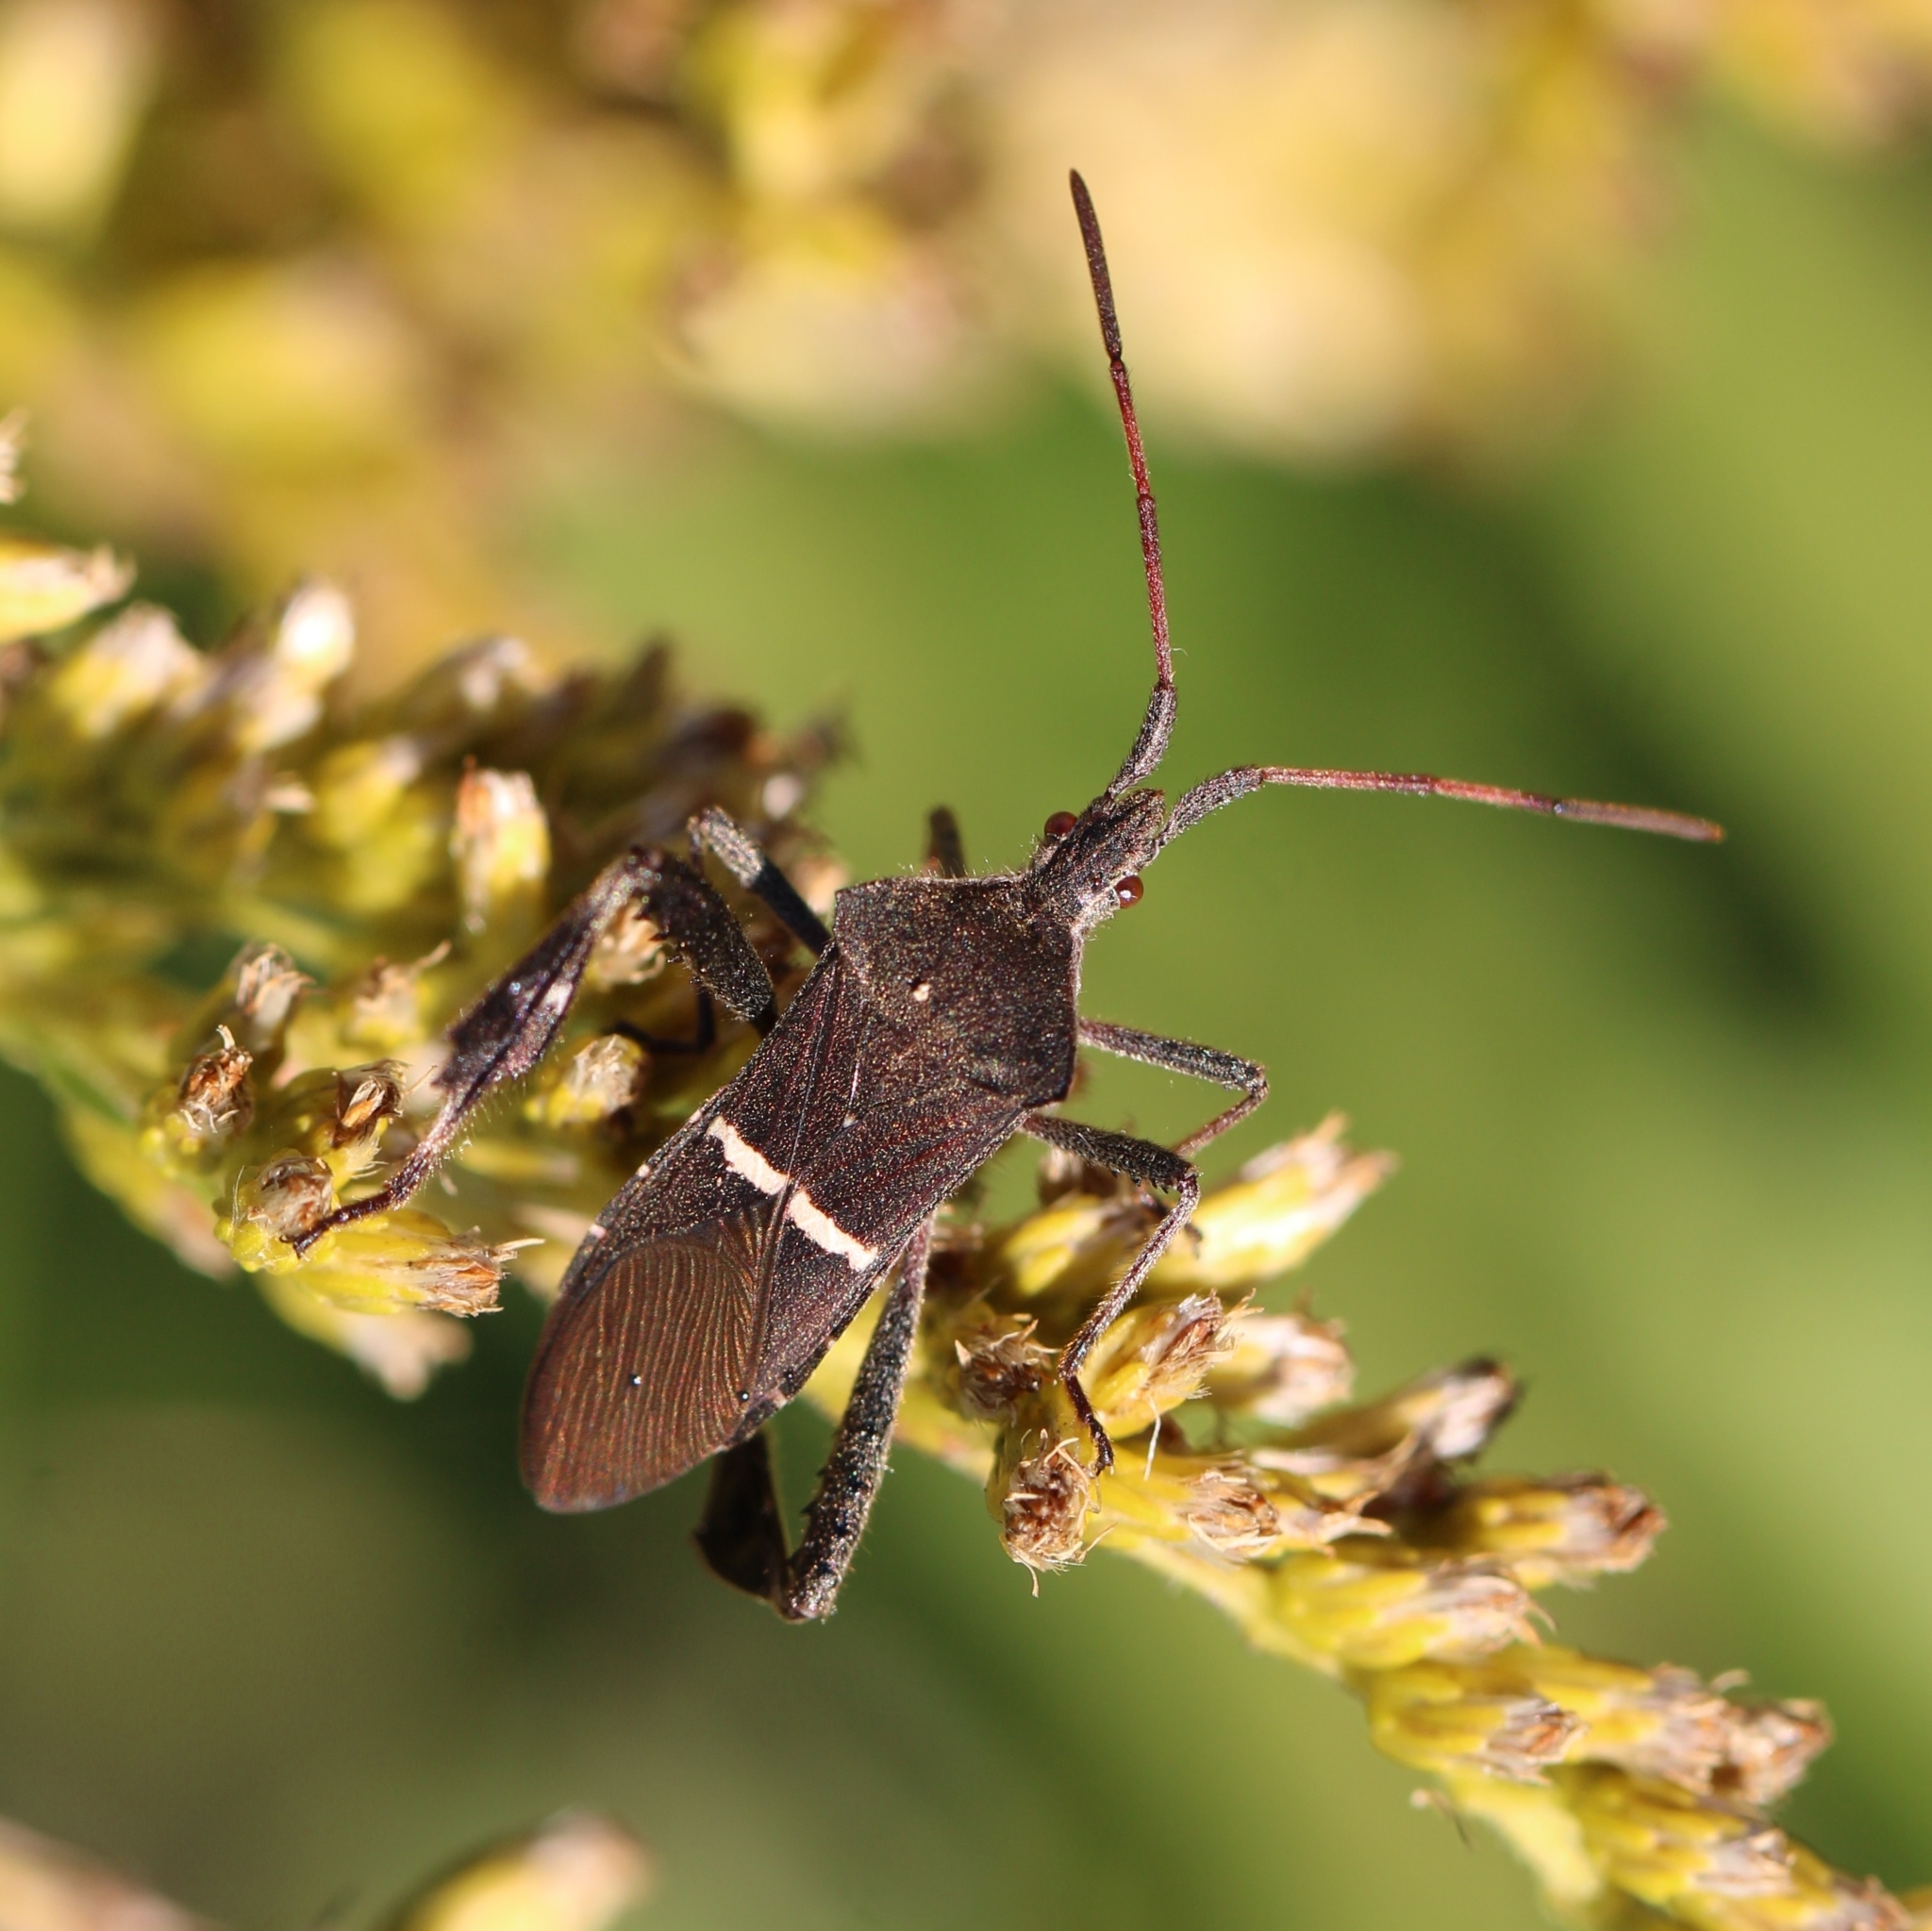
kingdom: Animalia
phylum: Arthropoda
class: Insecta
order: Hemiptera
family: Coreidae
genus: Leptoglossus
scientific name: Leptoglossus phyllopus
